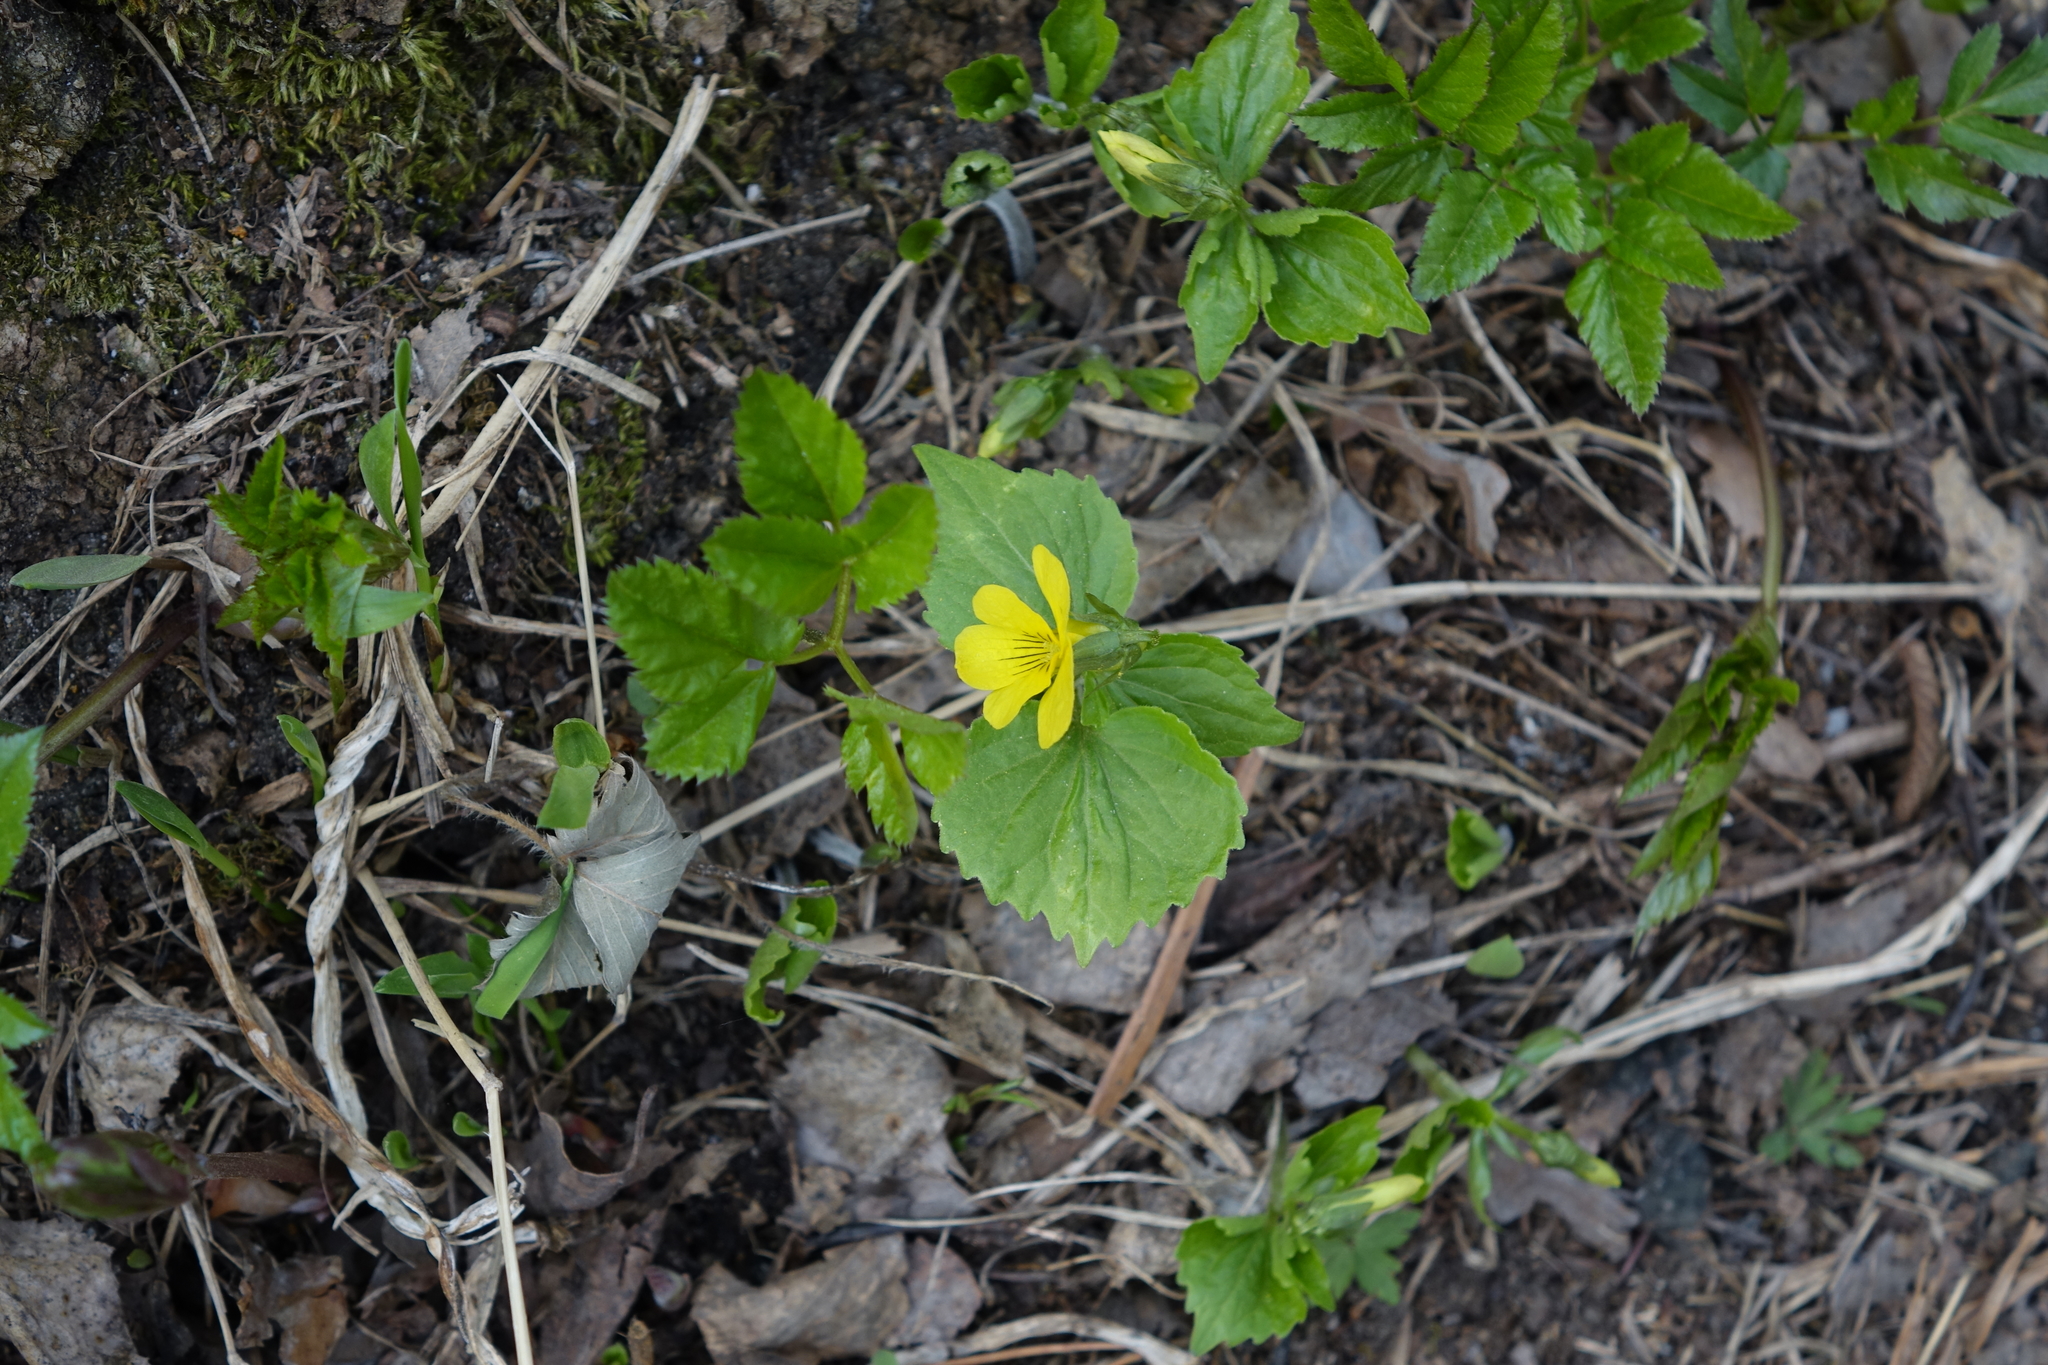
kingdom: Plantae
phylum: Tracheophyta
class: Magnoliopsida
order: Malpighiales
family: Violaceae
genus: Viola
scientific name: Viola uniflora
